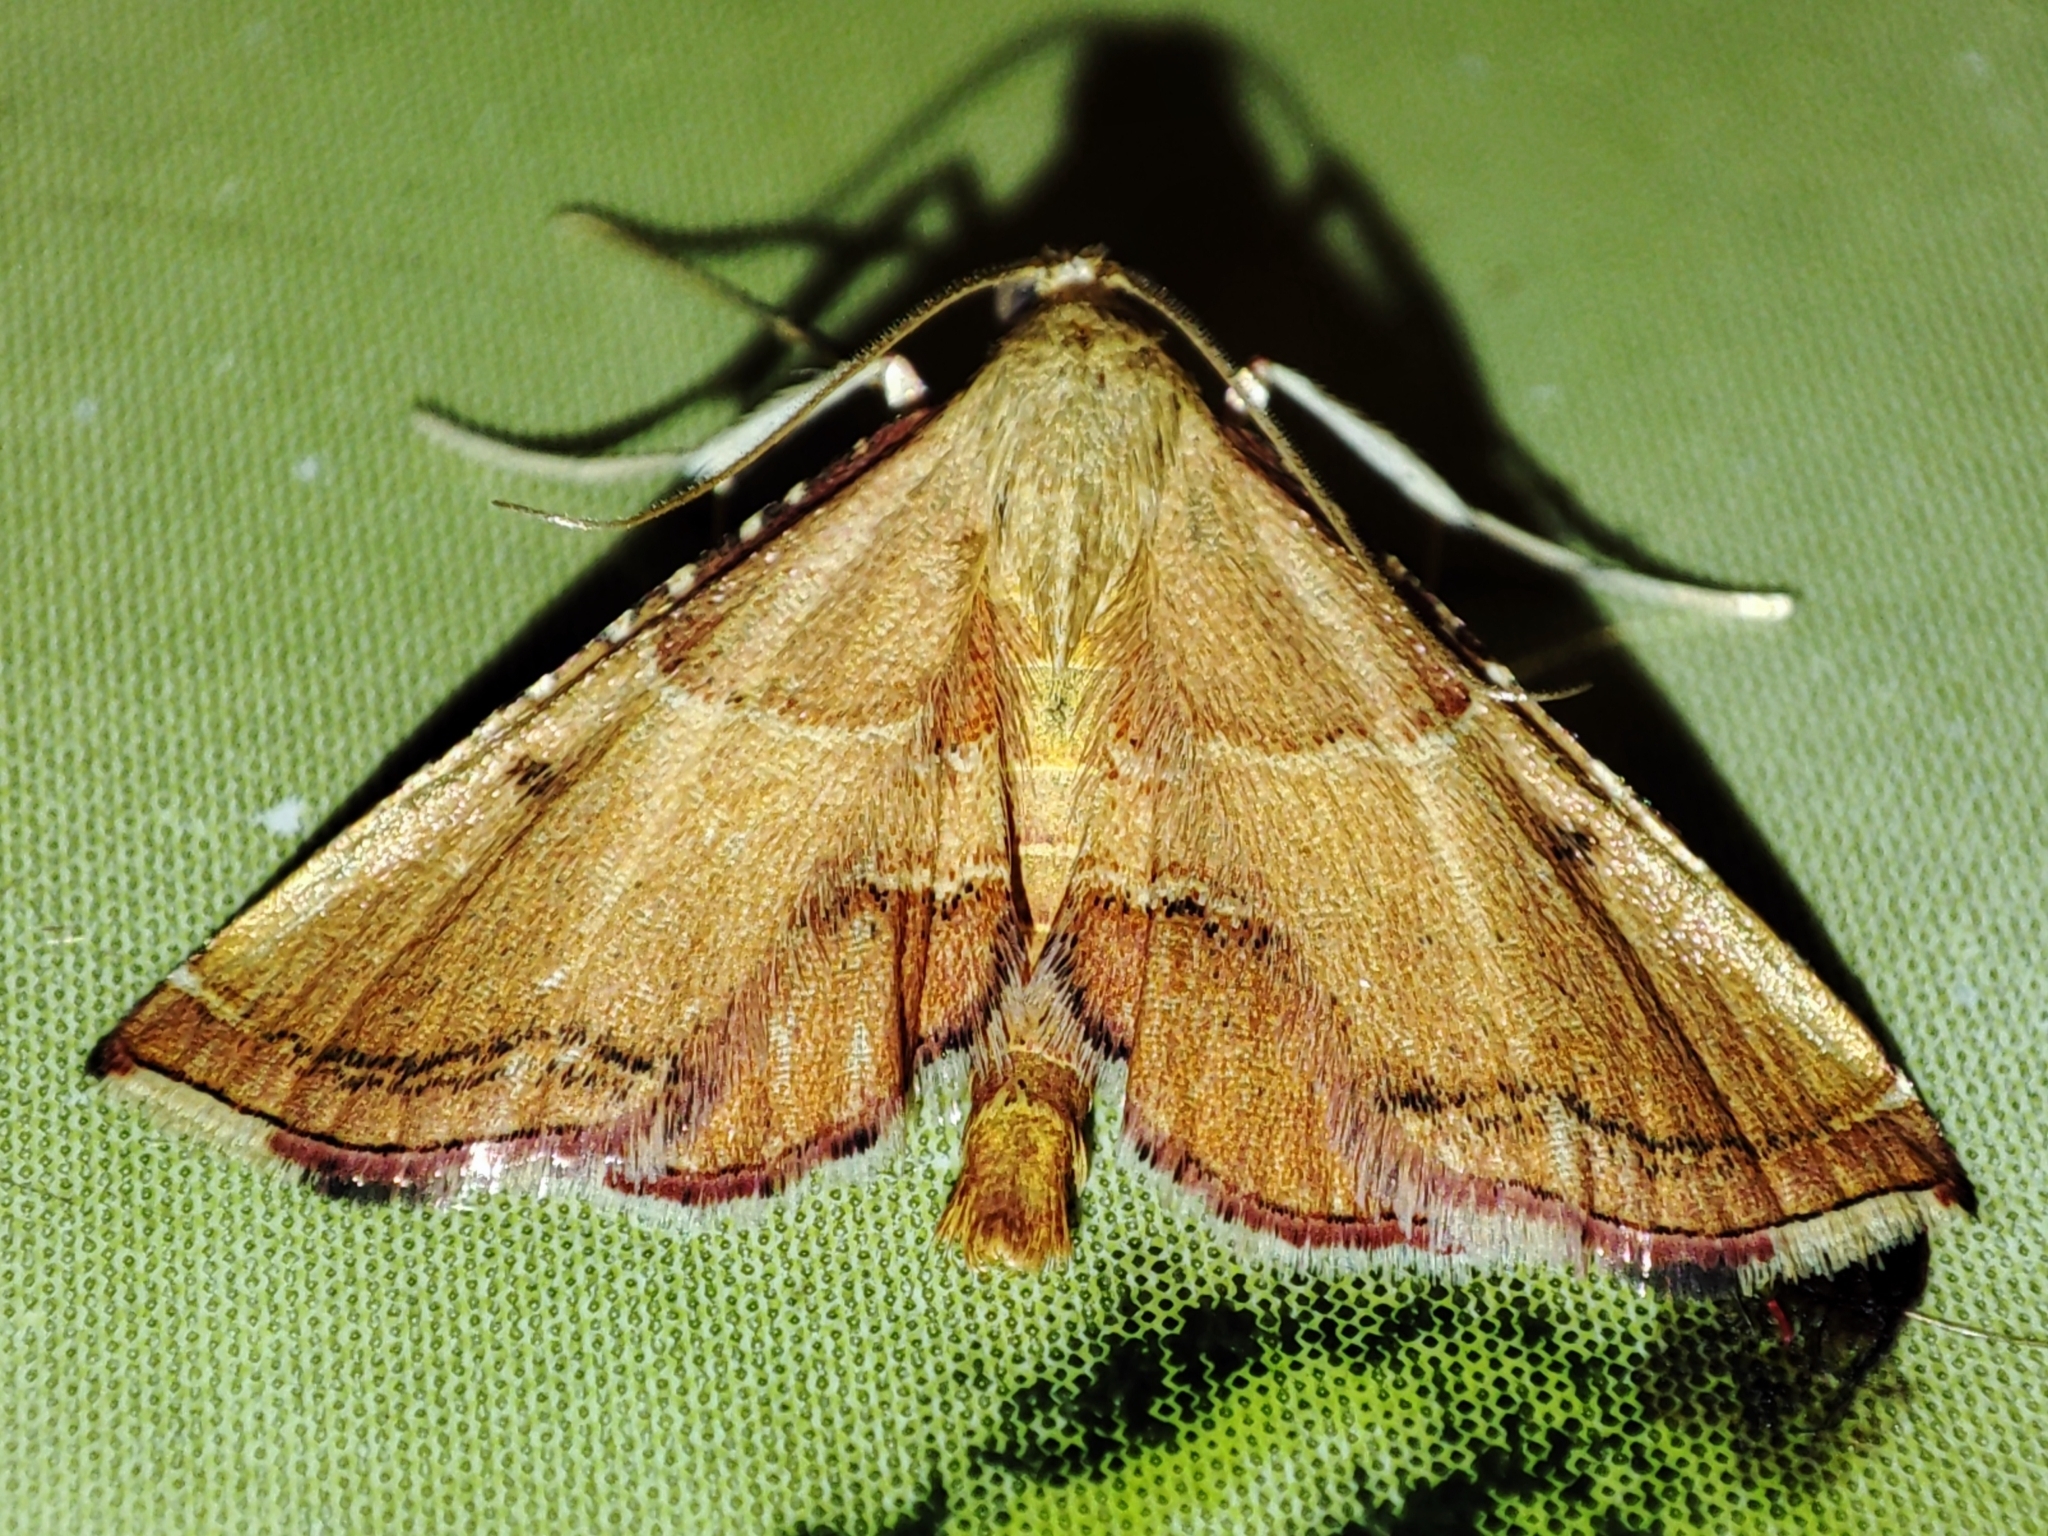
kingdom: Animalia
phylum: Arthropoda
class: Insecta
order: Lepidoptera
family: Pyralidae
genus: Endotricha
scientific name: Endotricha flammealis
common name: Rosy tabby
